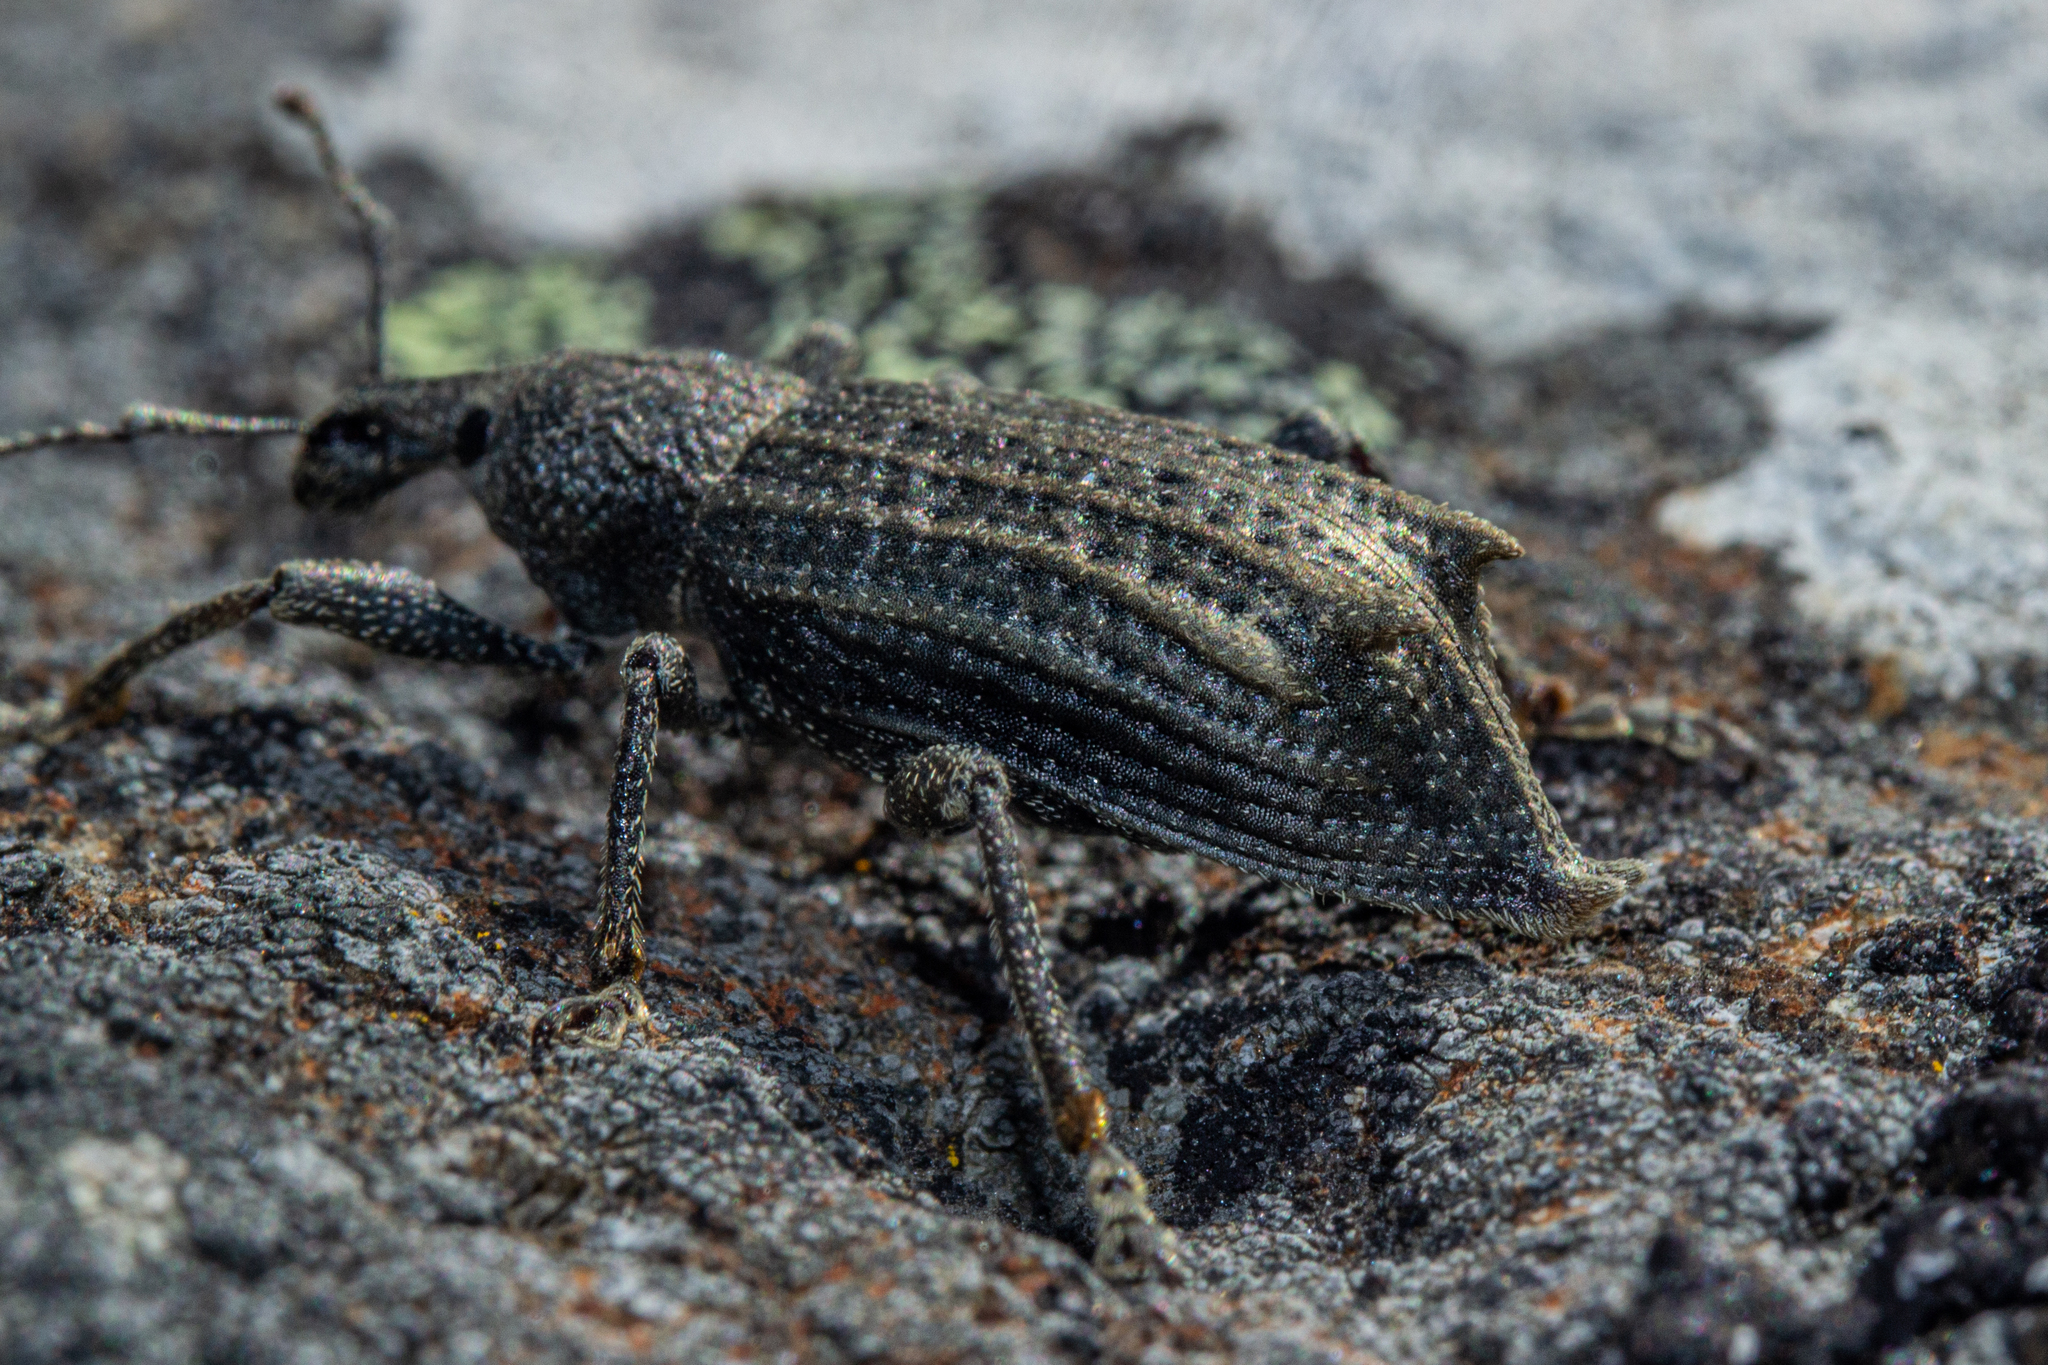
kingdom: Animalia
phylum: Arthropoda
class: Insecta
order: Coleoptera
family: Curculionidae
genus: Inophloeus
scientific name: Inophloeus inuus
